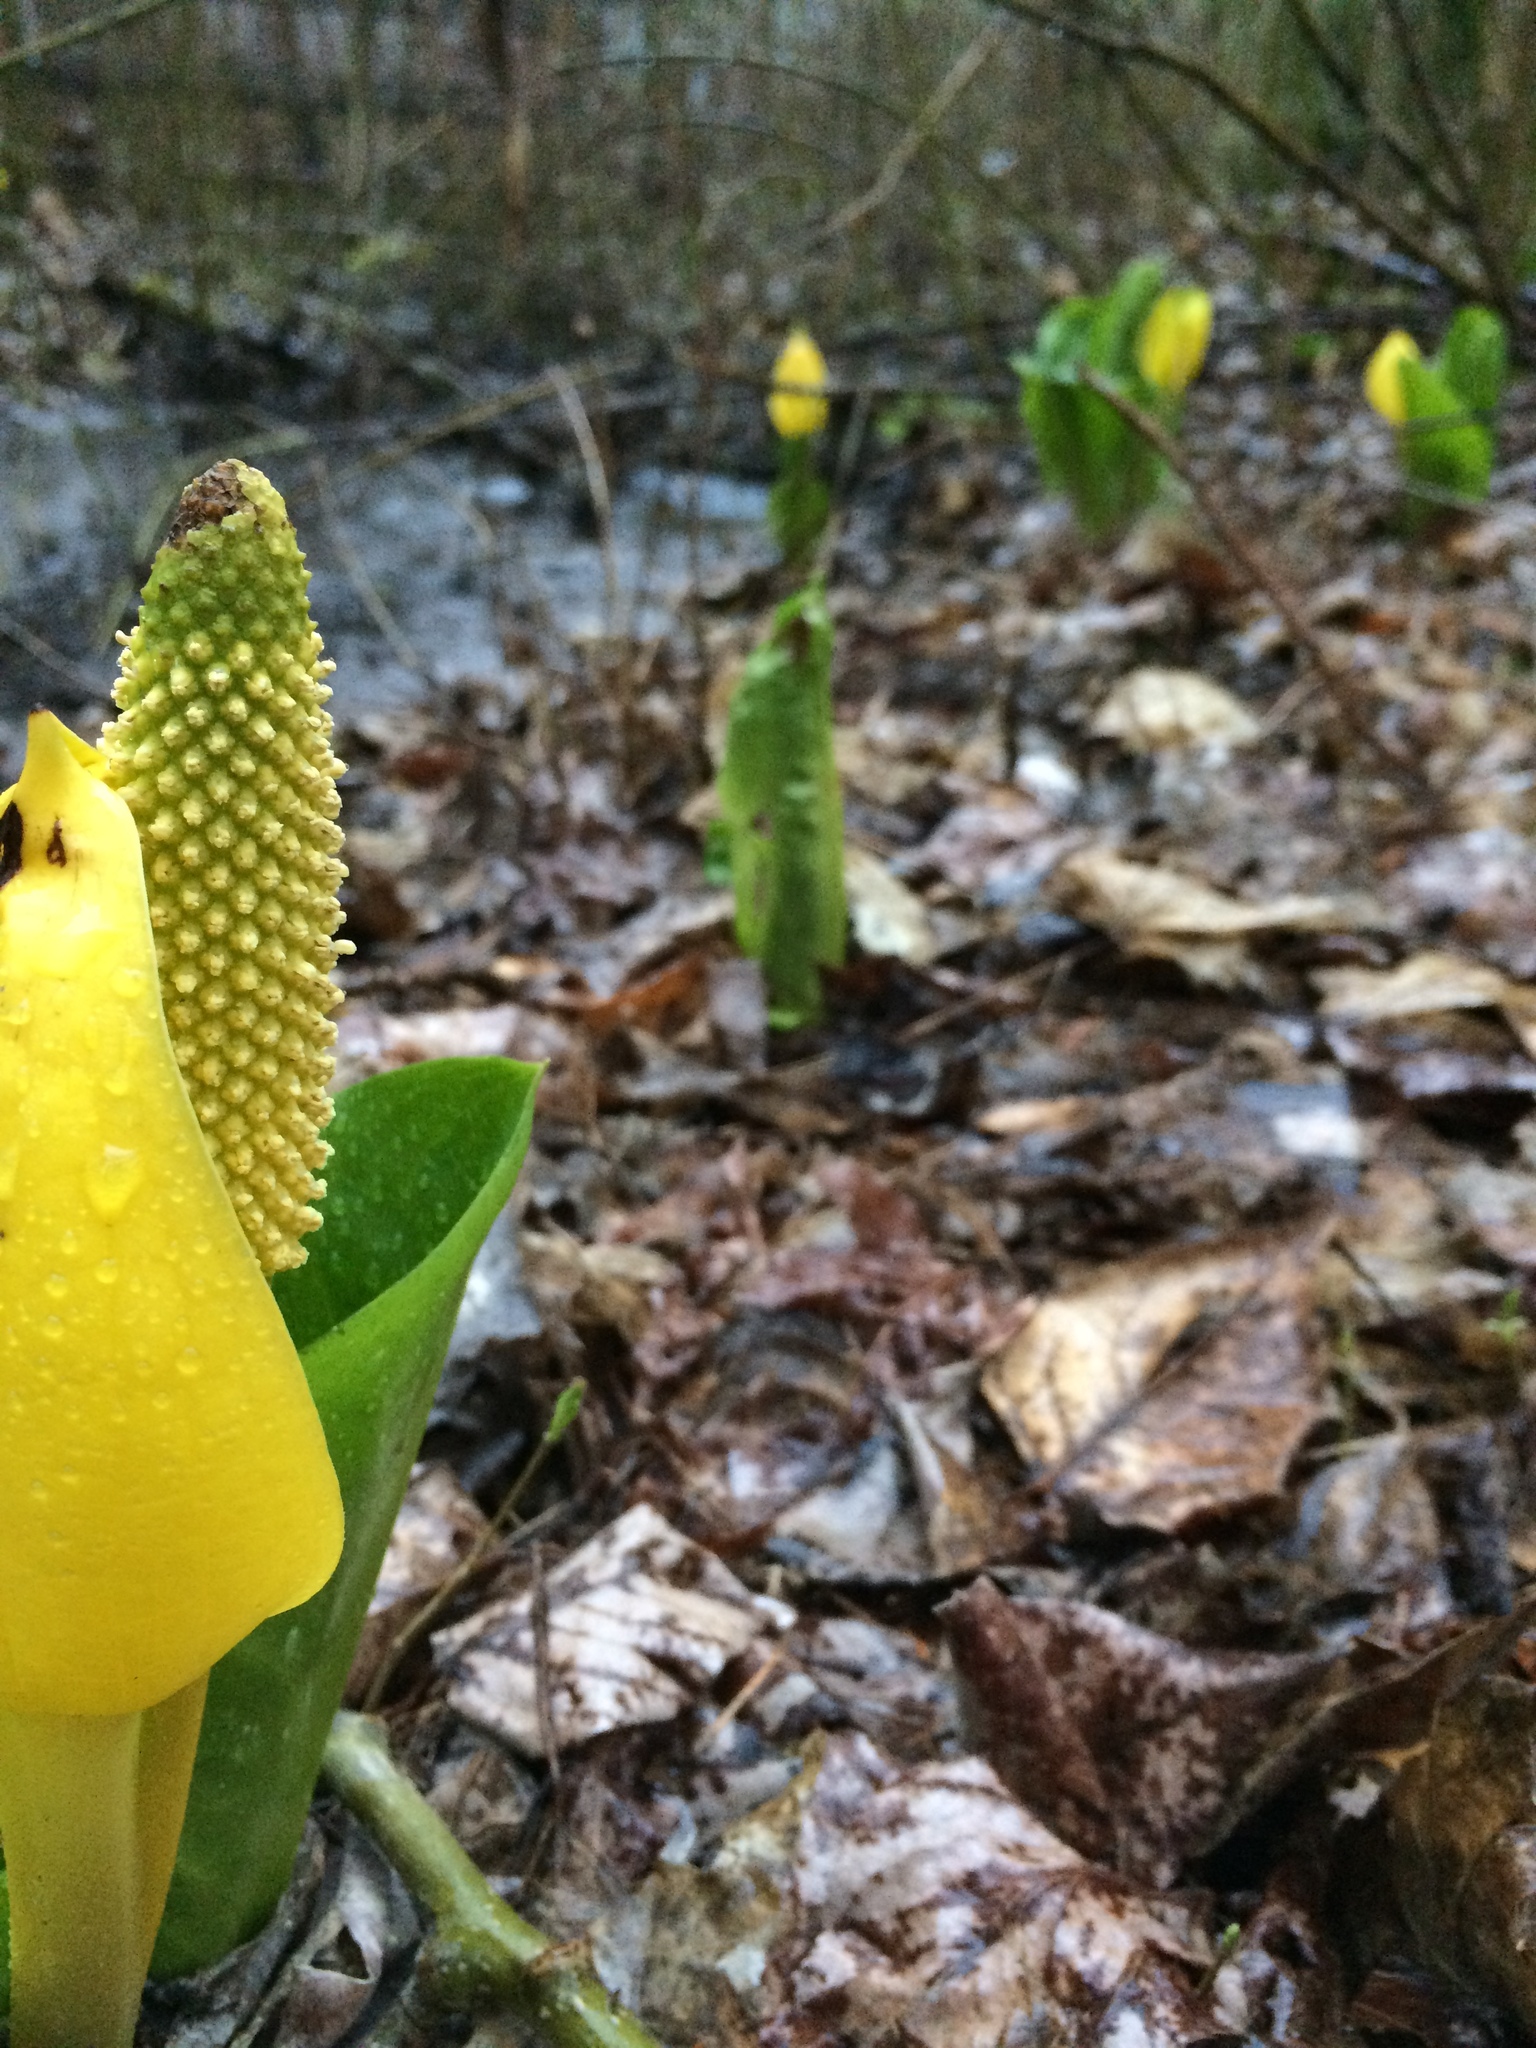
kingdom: Plantae
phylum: Tracheophyta
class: Liliopsida
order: Alismatales
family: Araceae
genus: Lysichiton
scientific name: Lysichiton americanus
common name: American skunk cabbage
